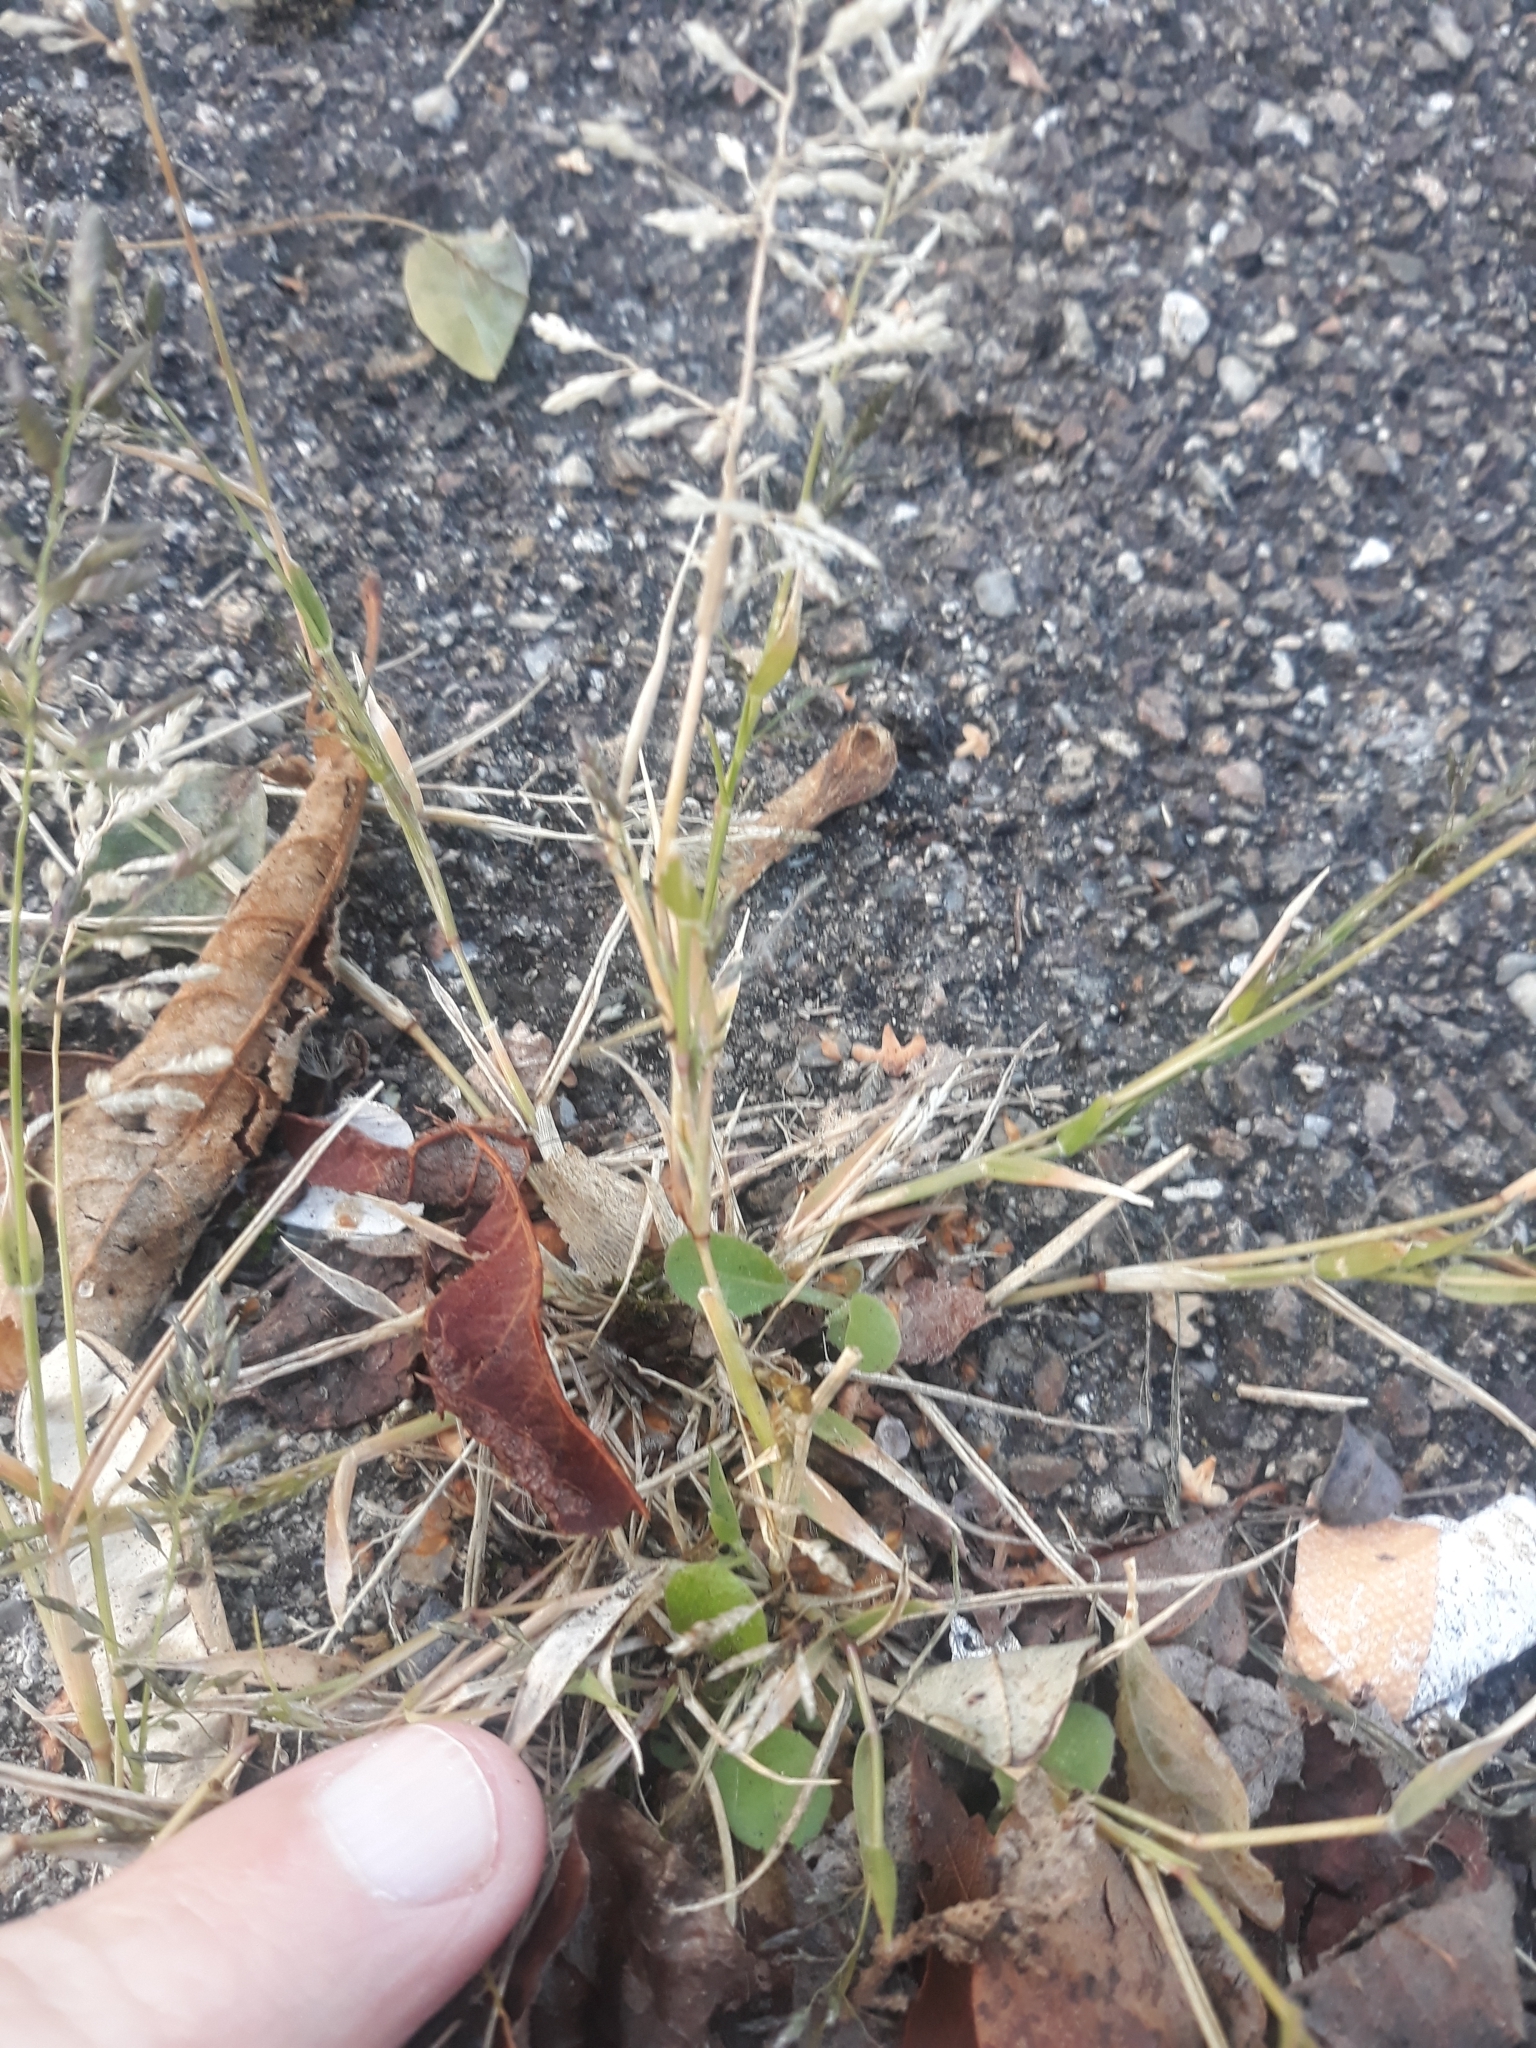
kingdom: Plantae
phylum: Tracheophyta
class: Liliopsida
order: Poales
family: Poaceae
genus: Eragrostis
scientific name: Eragrostis minor
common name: Small love-grass
